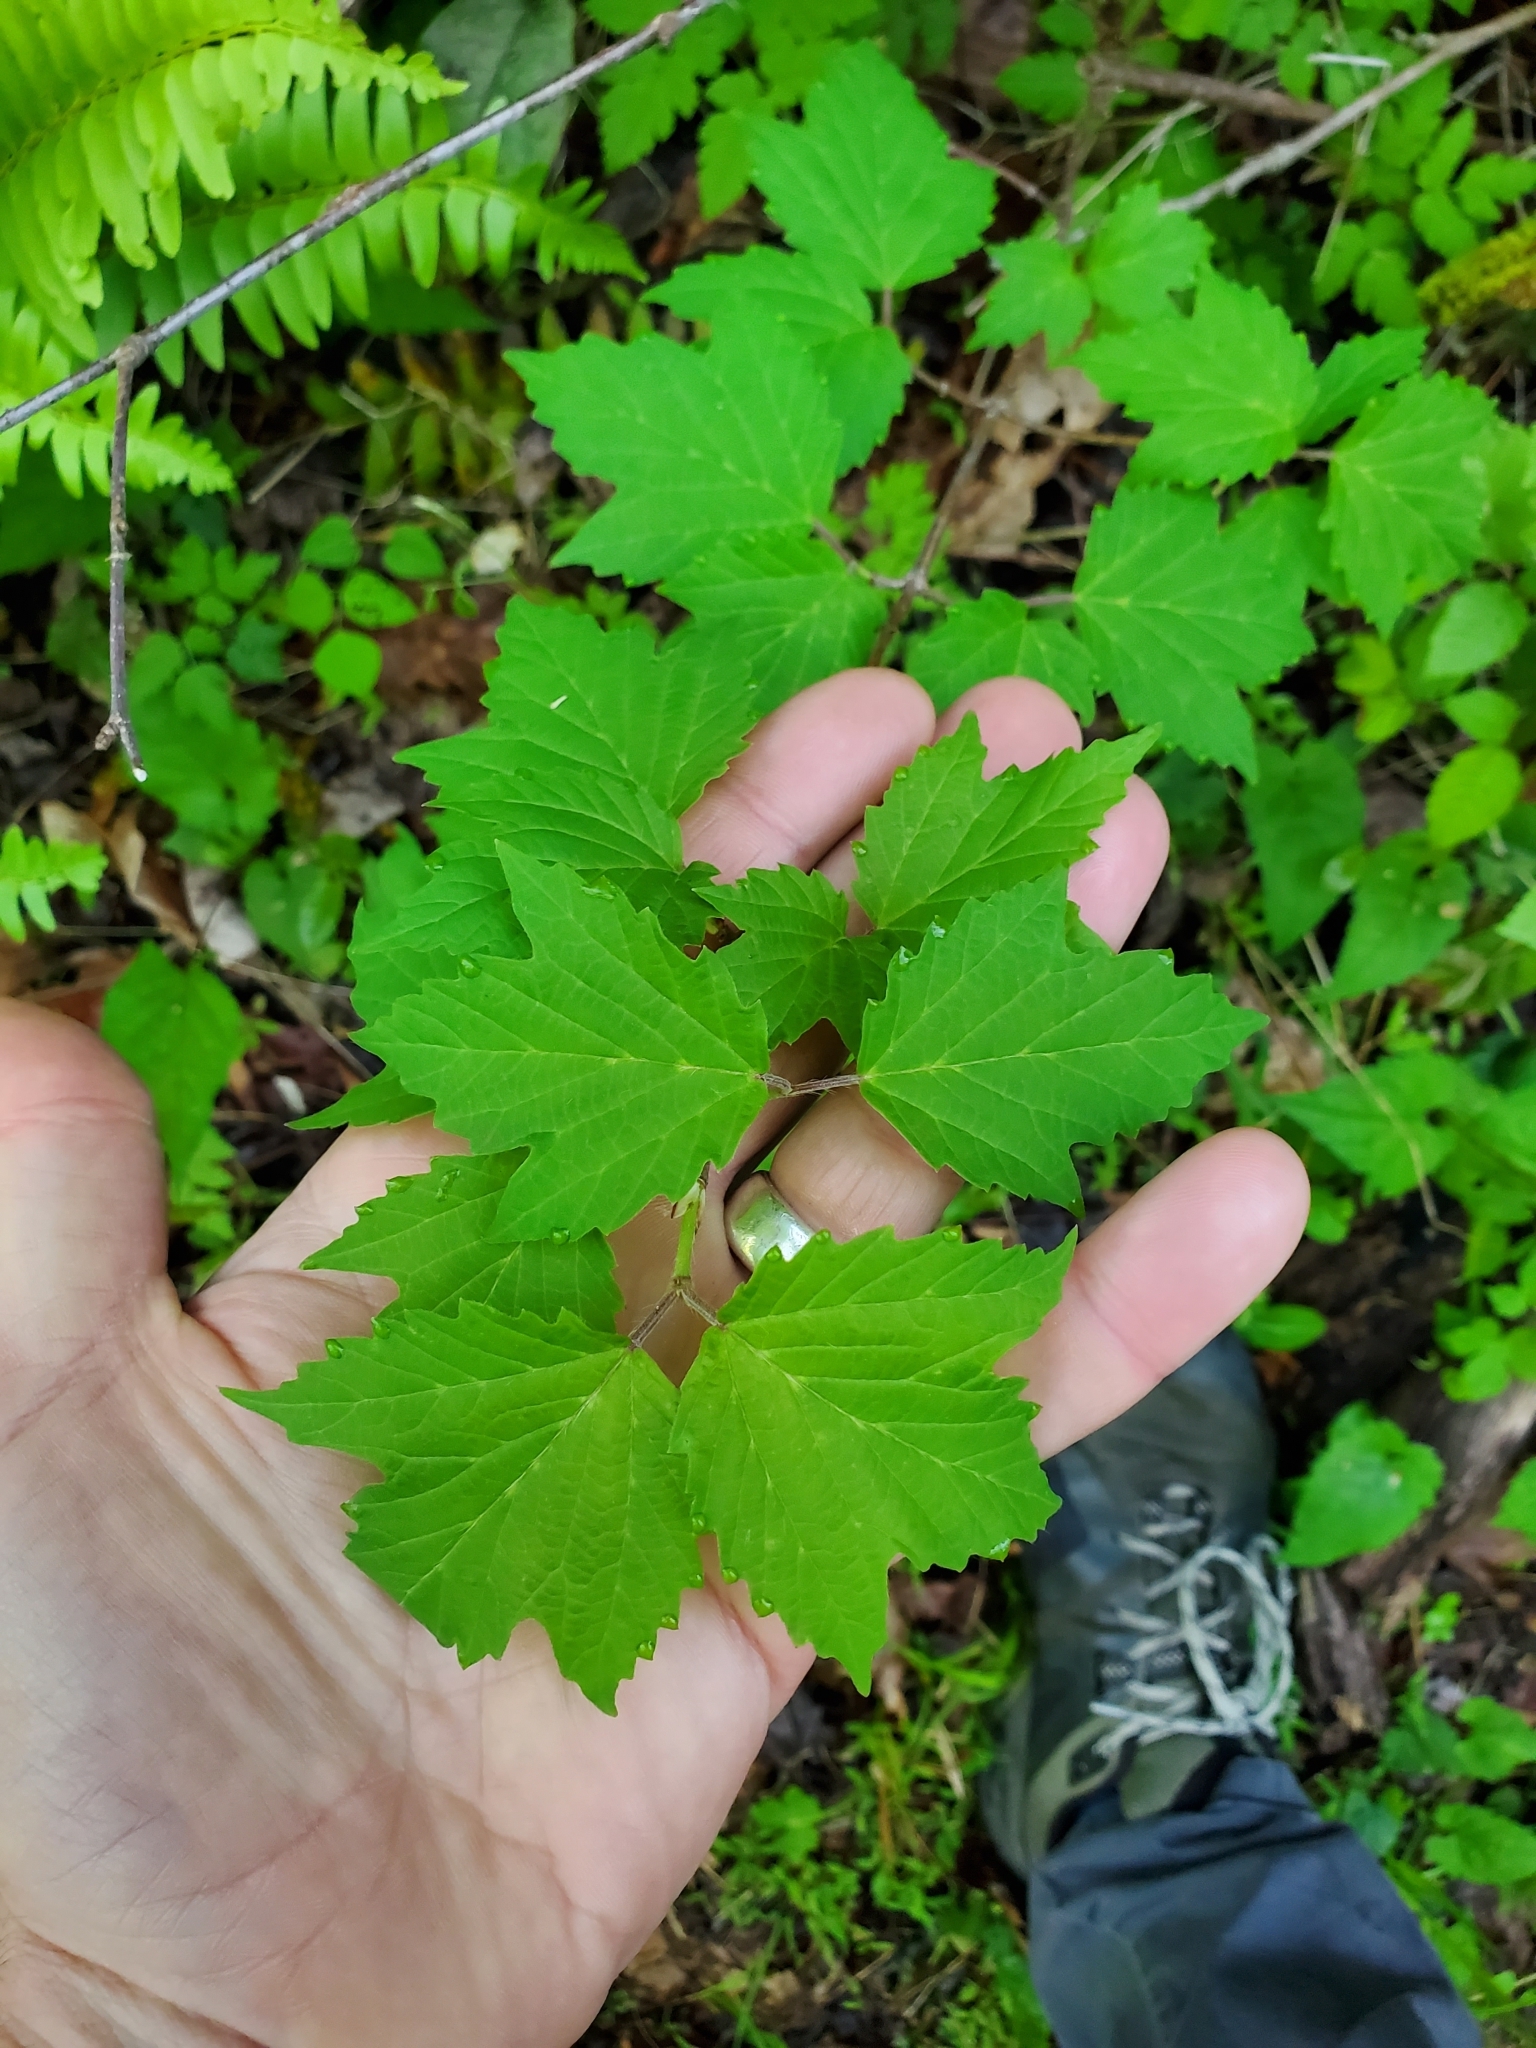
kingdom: Plantae
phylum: Tracheophyta
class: Magnoliopsida
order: Dipsacales
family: Viburnaceae
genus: Viburnum
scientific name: Viburnum acerifolium
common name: Dockmackie
